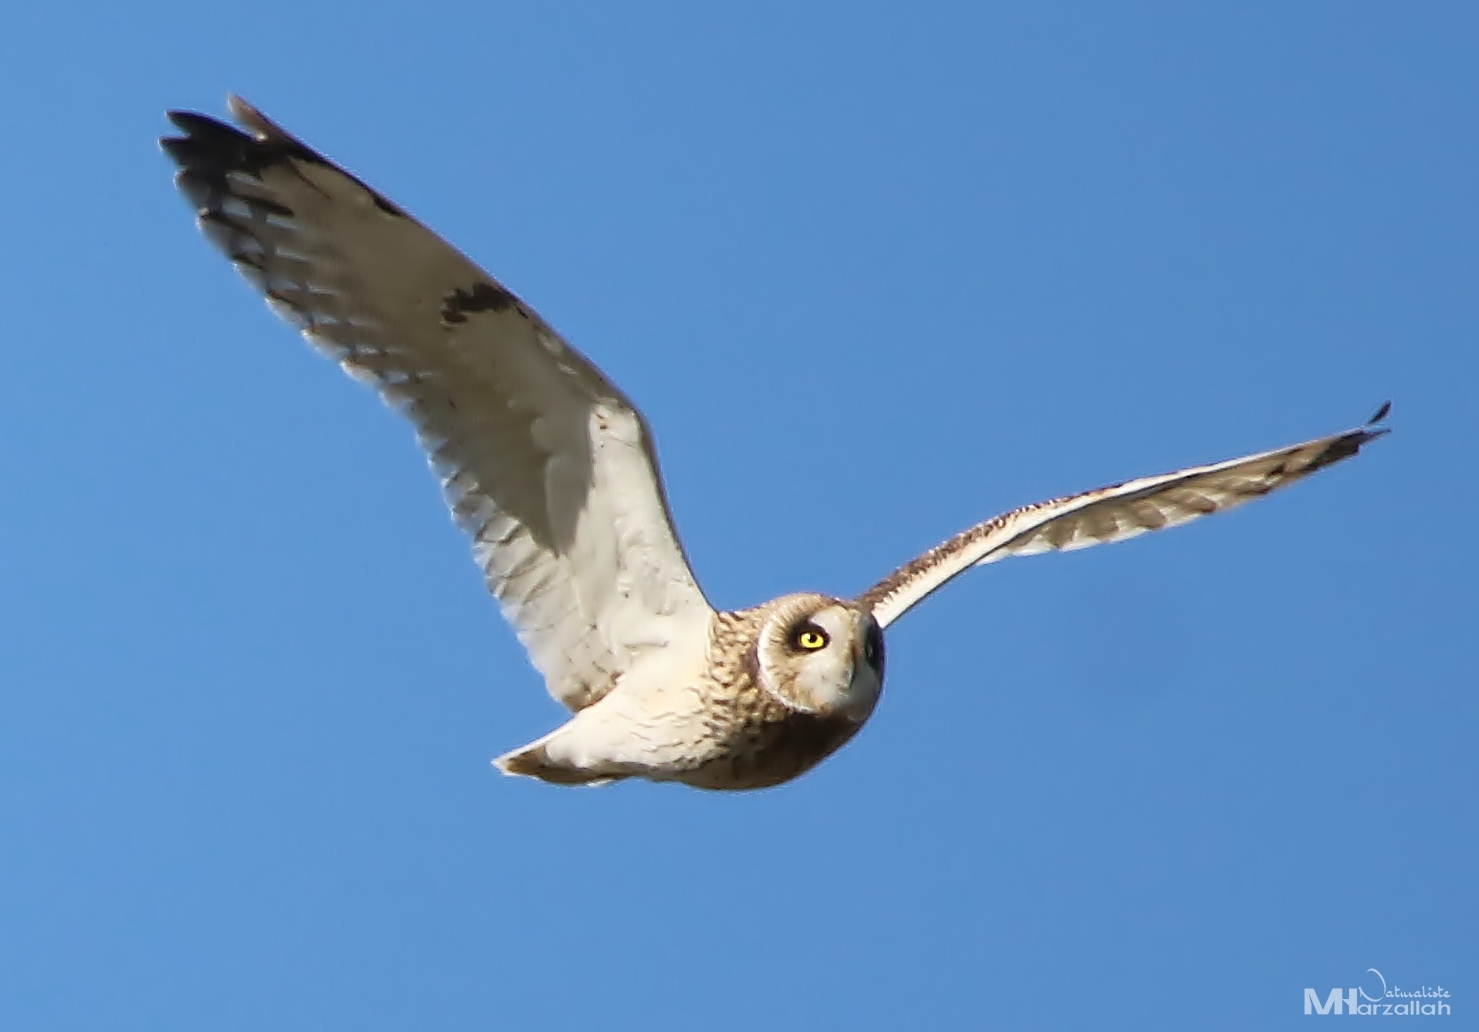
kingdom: Animalia
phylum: Chordata
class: Aves
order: Strigiformes
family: Strigidae
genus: Asio
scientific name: Asio flammeus
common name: Short-eared owl
